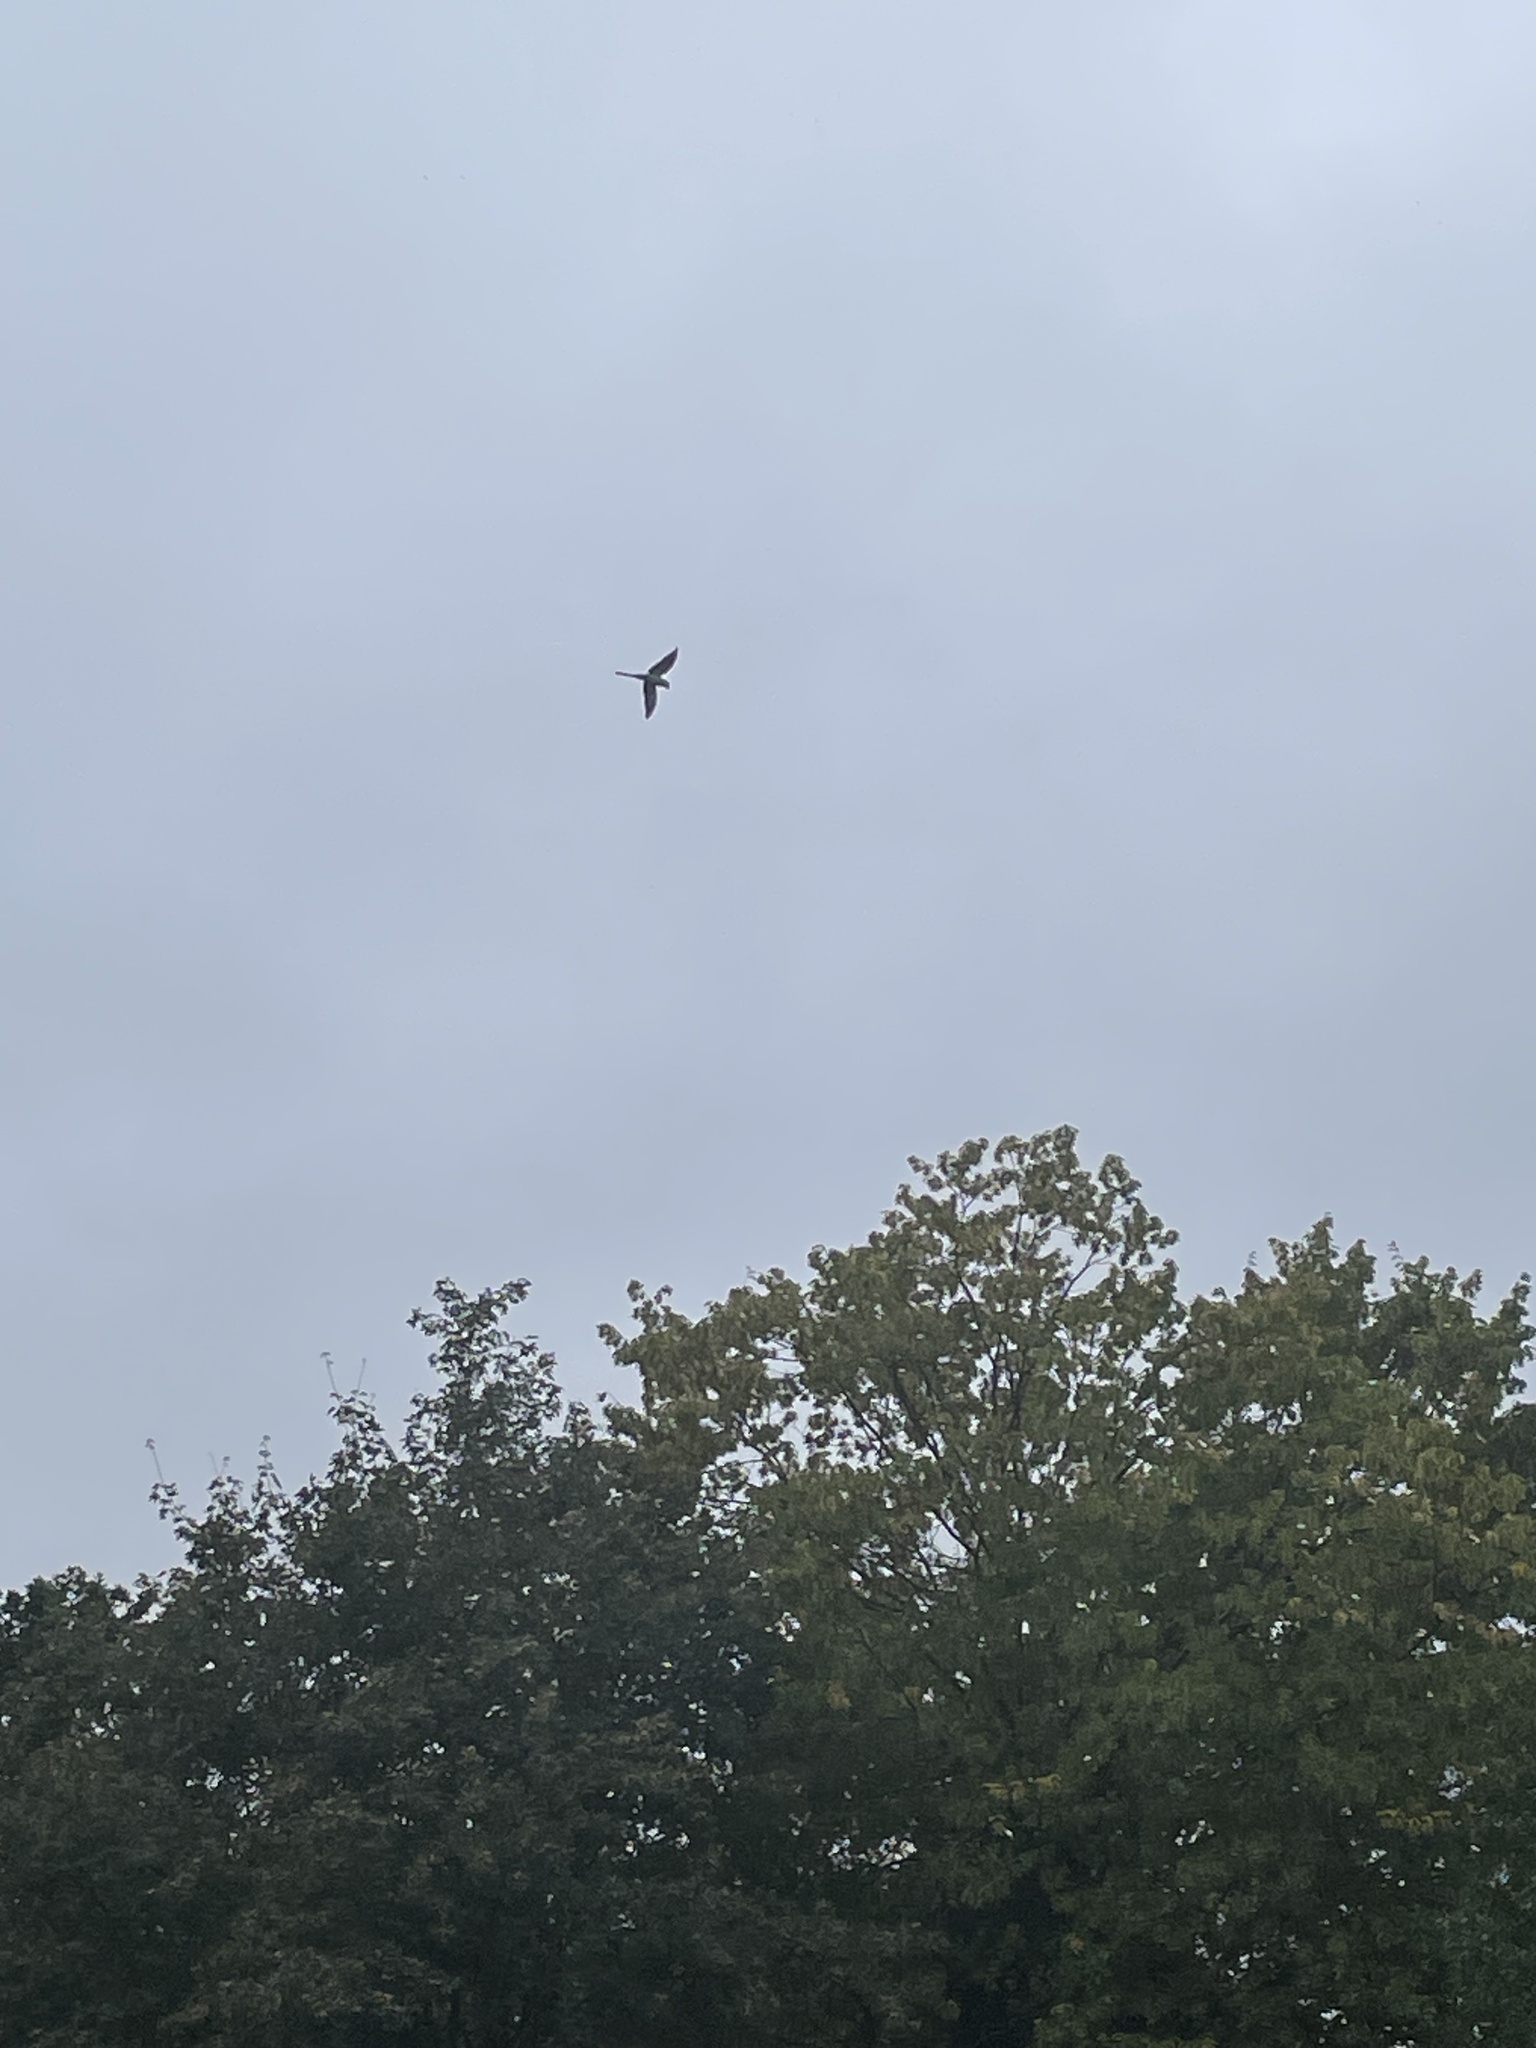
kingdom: Animalia
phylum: Chordata
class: Aves
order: Psittaciformes
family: Psittacidae
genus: Psittacula
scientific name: Psittacula krameri
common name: Rose-ringed parakeet
